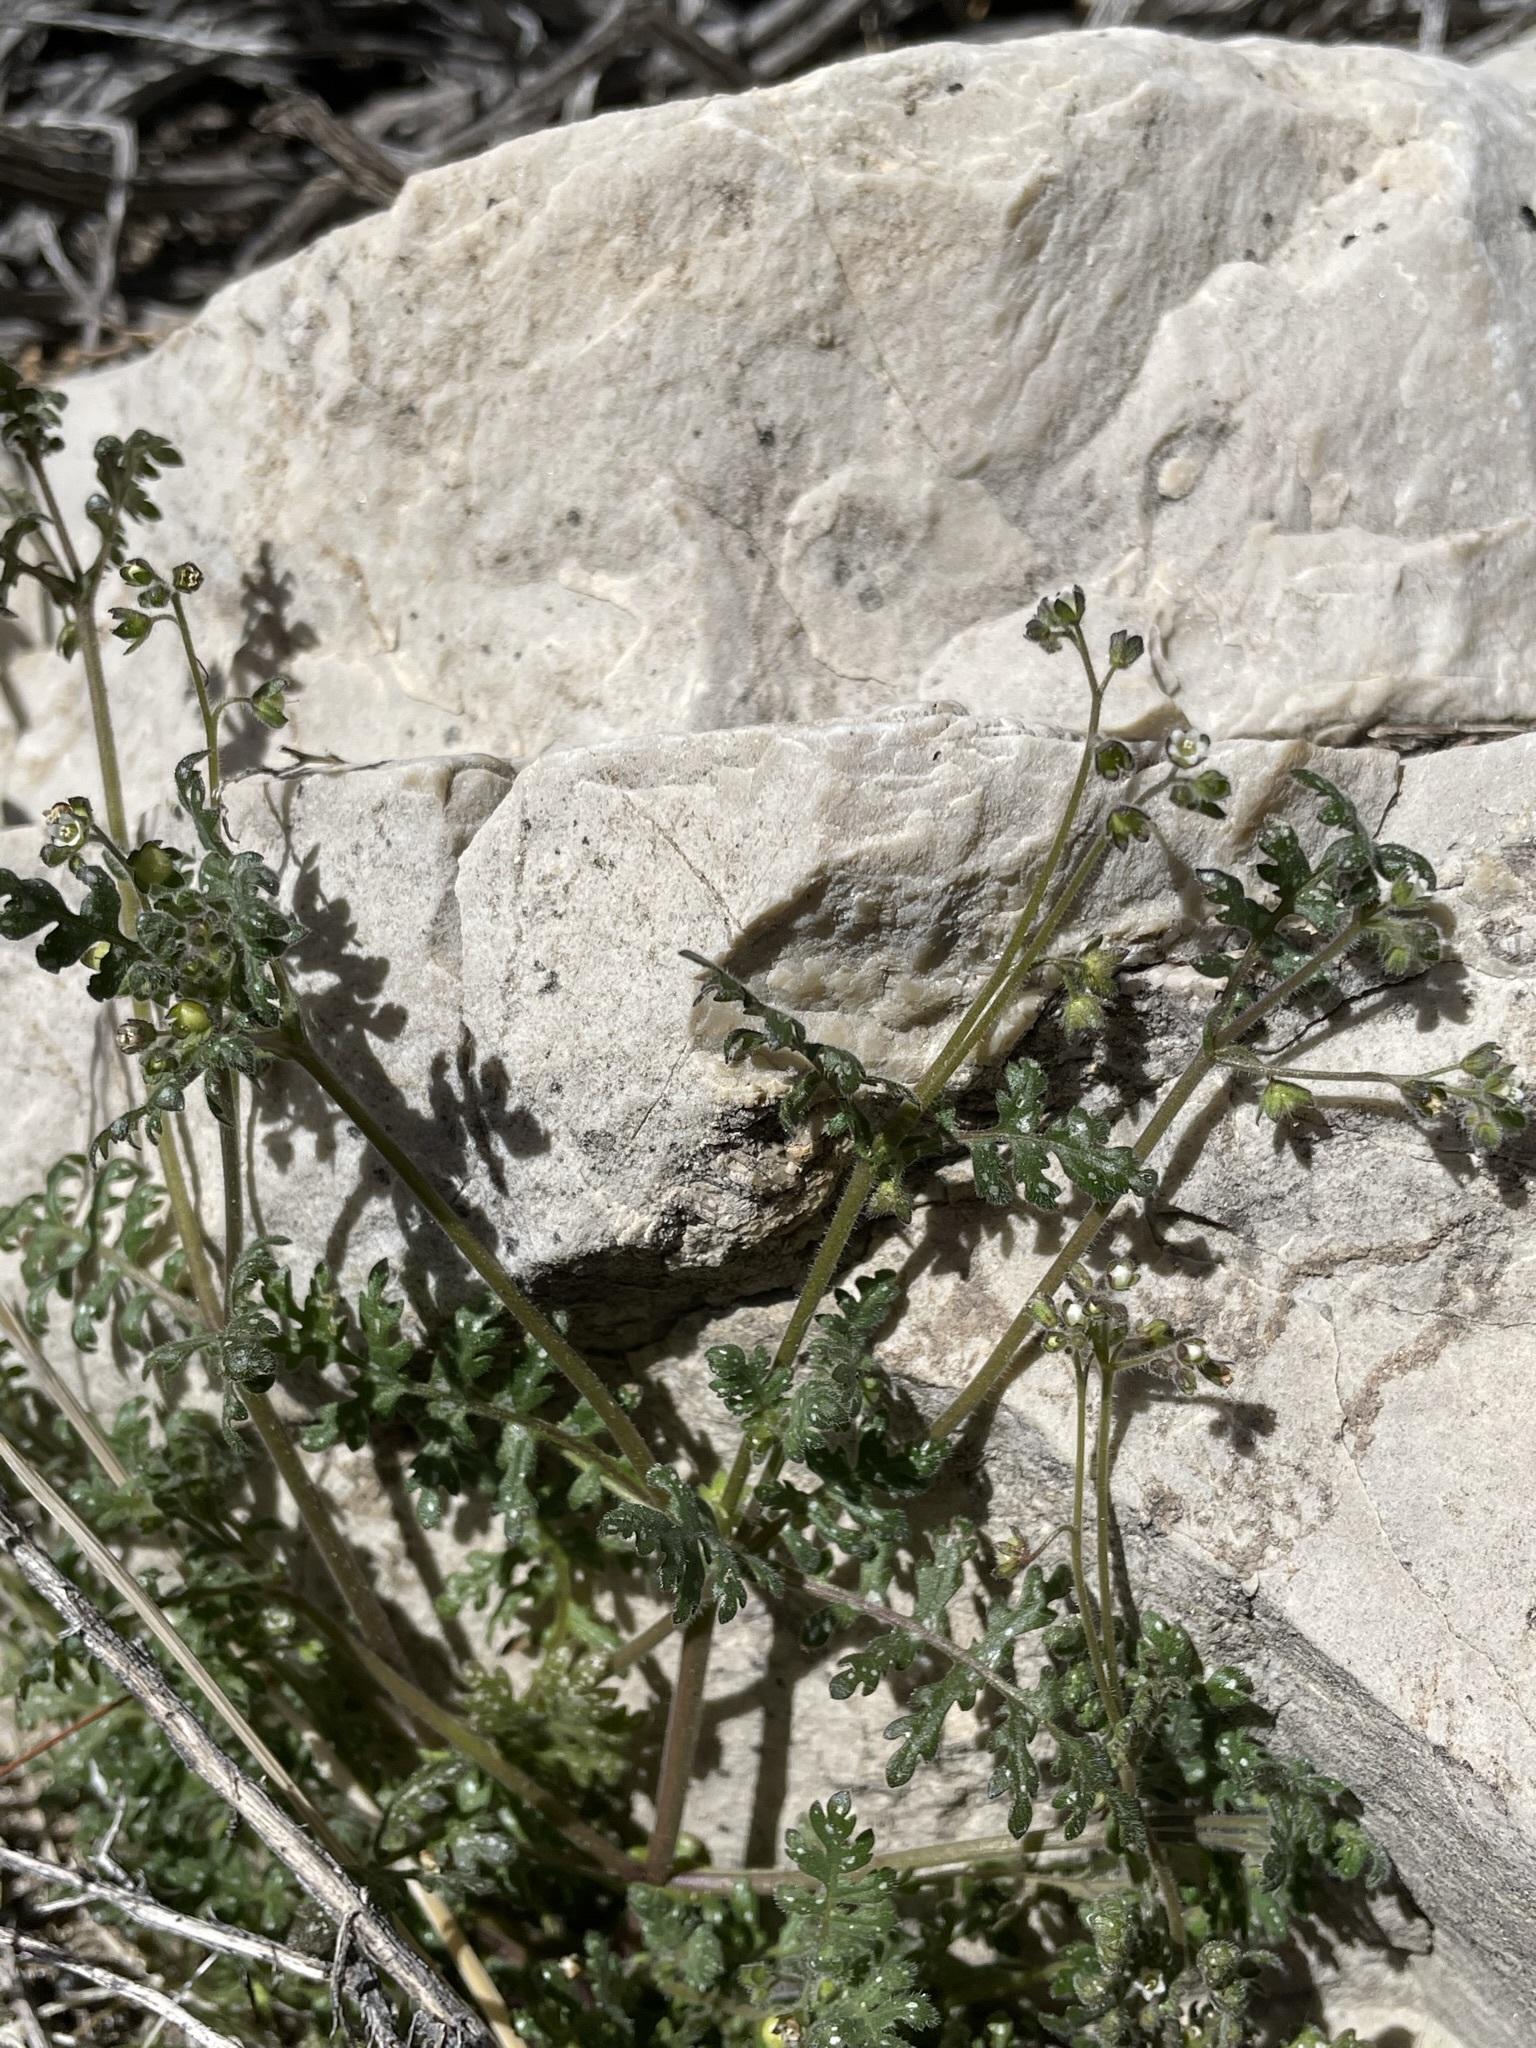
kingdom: Plantae
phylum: Tracheophyta
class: Magnoliopsida
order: Boraginales
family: Hydrophyllaceae
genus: Eucrypta
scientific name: Eucrypta chrysanthemifolia
